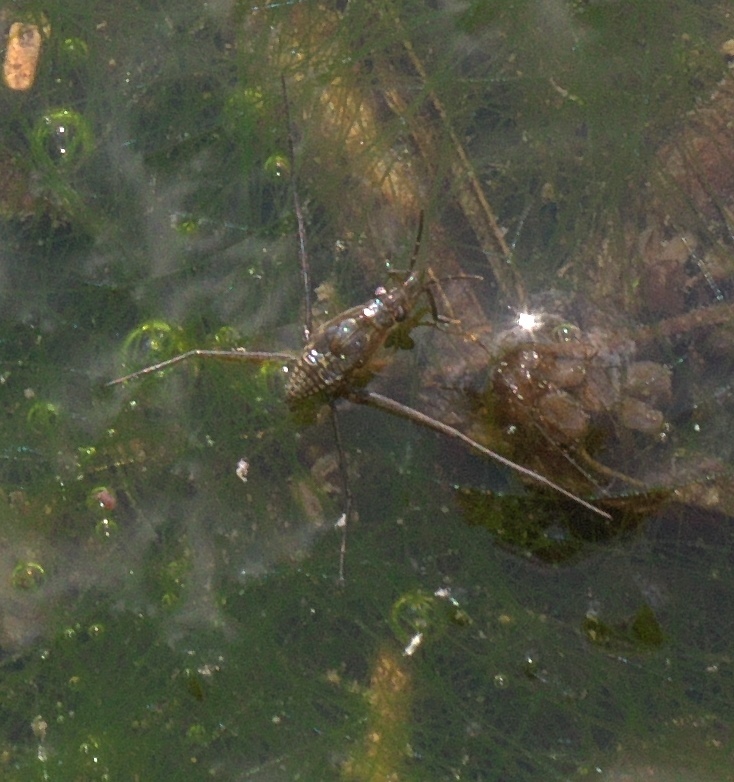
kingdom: Animalia
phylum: Arthropoda
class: Insecta
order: Hemiptera
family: Gerridae
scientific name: Gerridae
